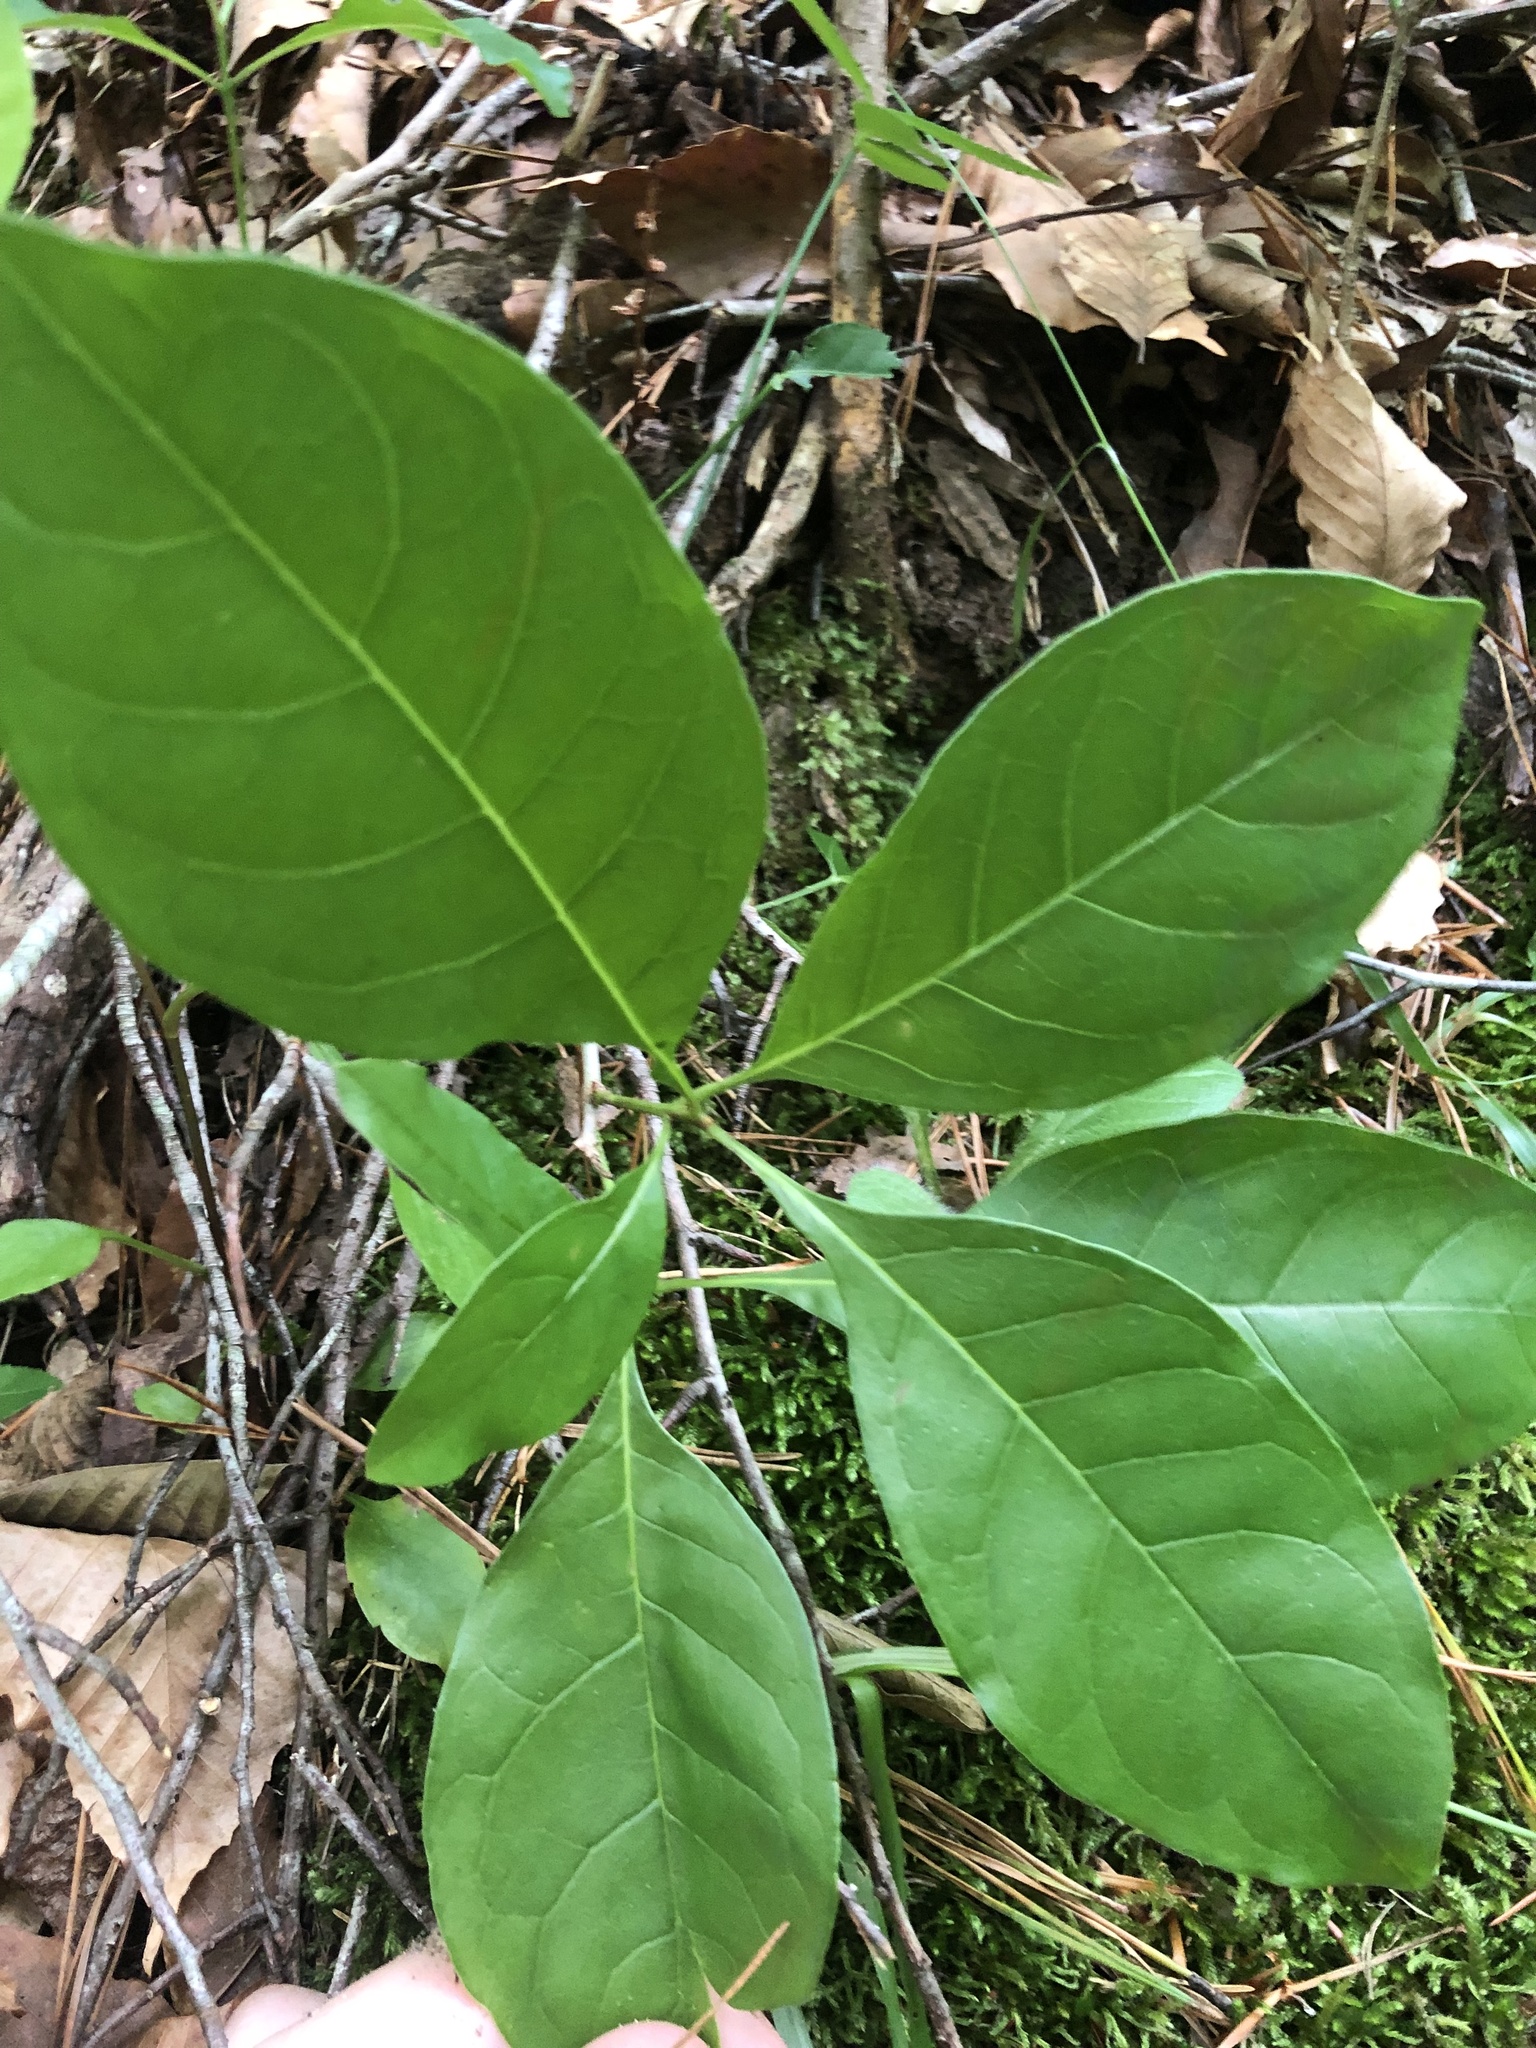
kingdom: Plantae
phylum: Tracheophyta
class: Magnoliopsida
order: Lamiales
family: Oleaceae
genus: Chionanthus
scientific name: Chionanthus virginicus
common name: American fringetree
